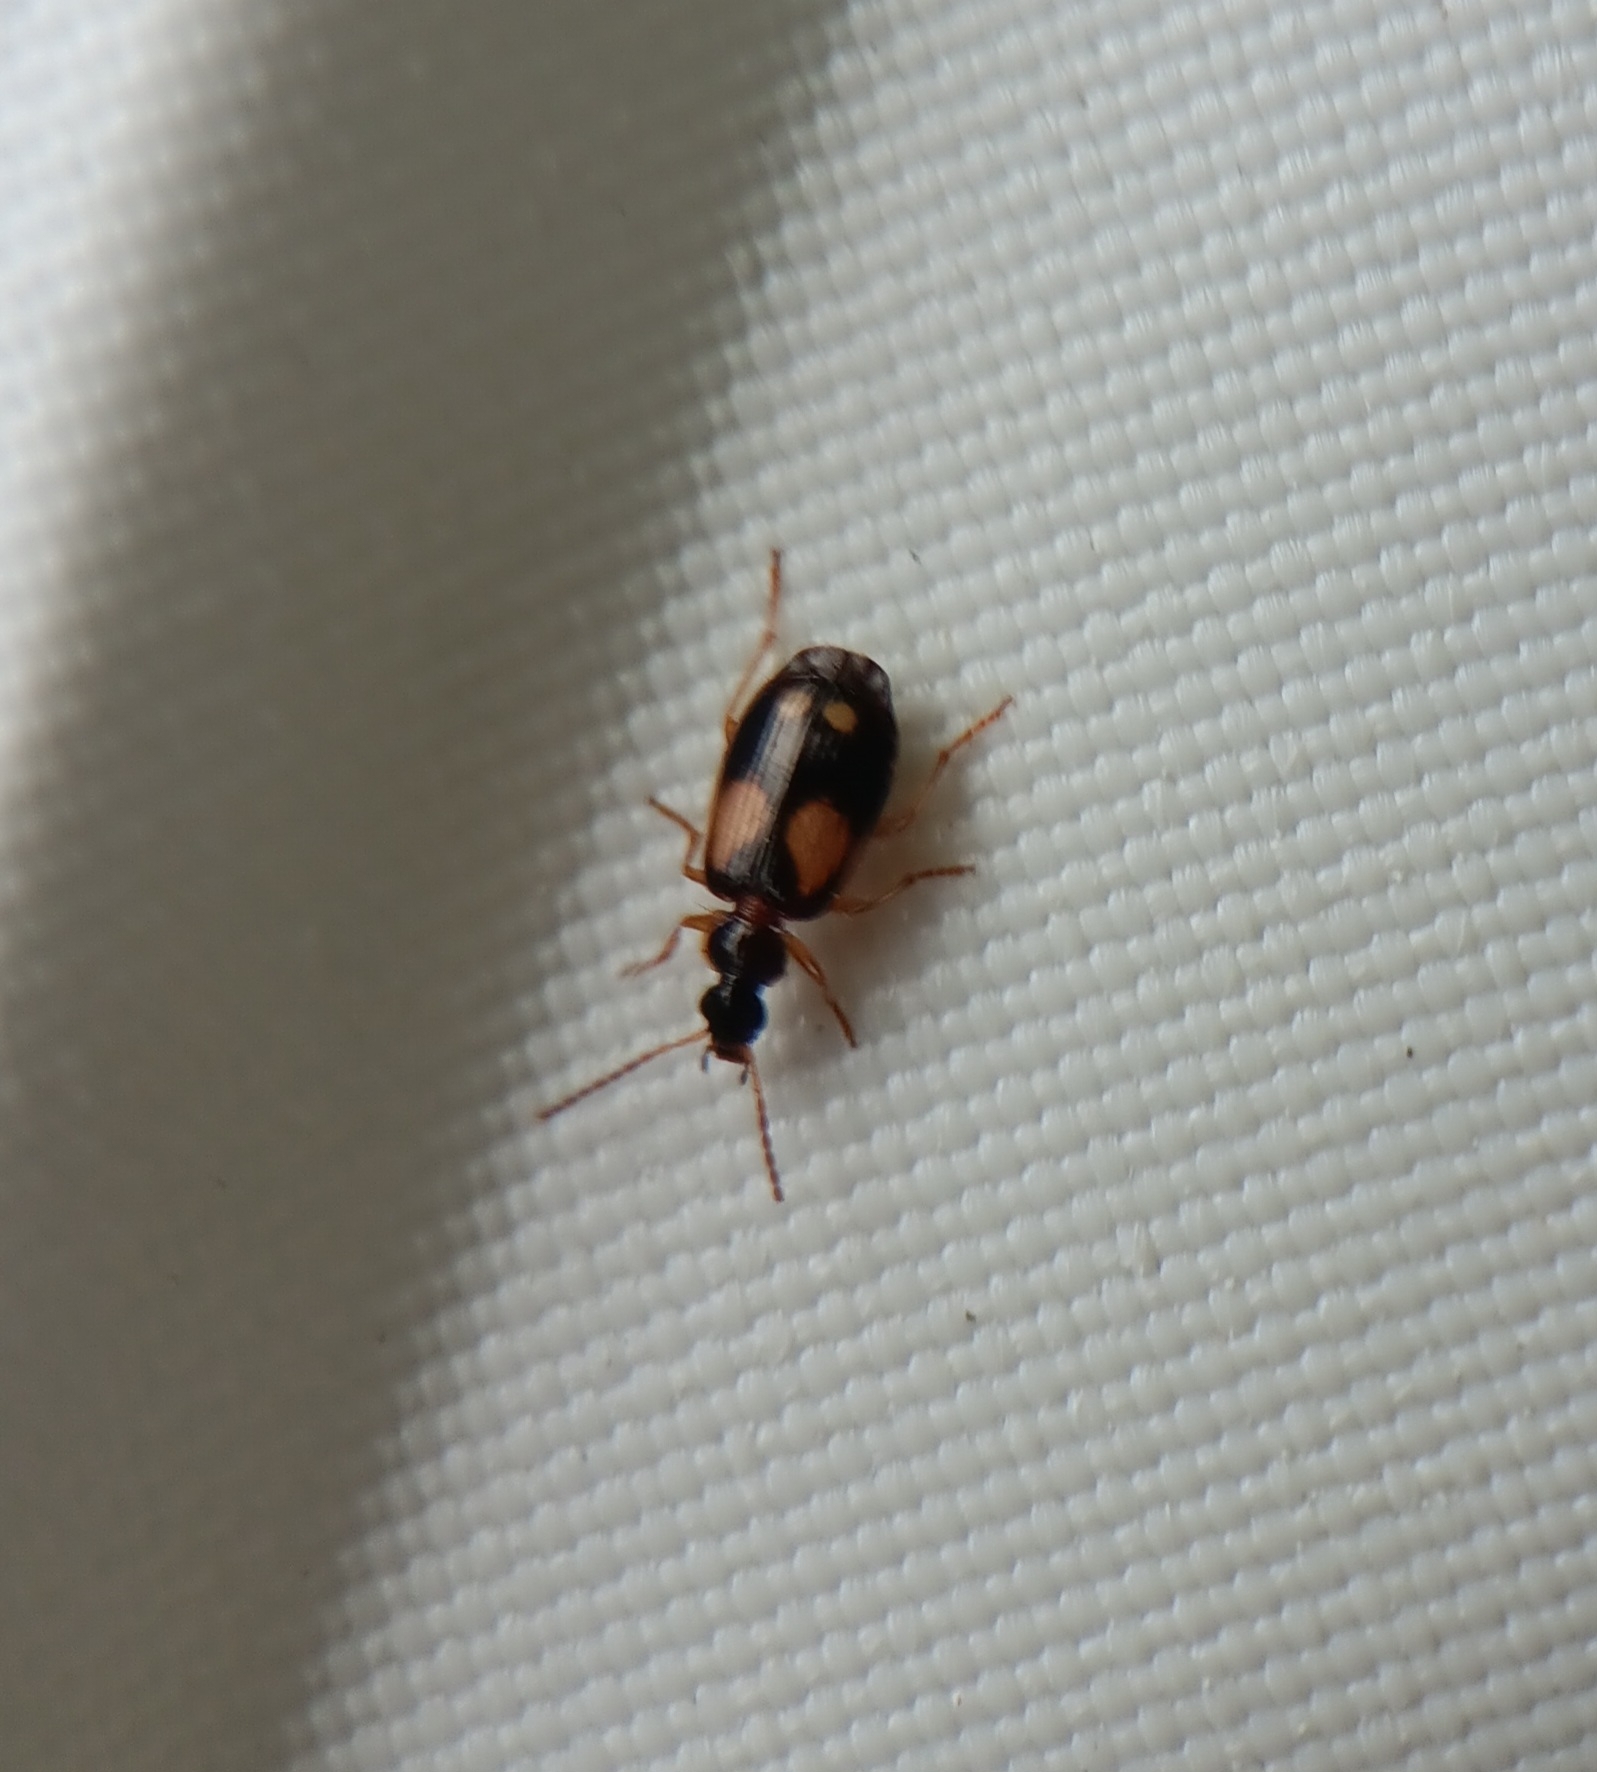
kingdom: Animalia
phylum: Arthropoda
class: Insecta
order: Coleoptera
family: Carabidae
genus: Lebia
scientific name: Lebia ornata
